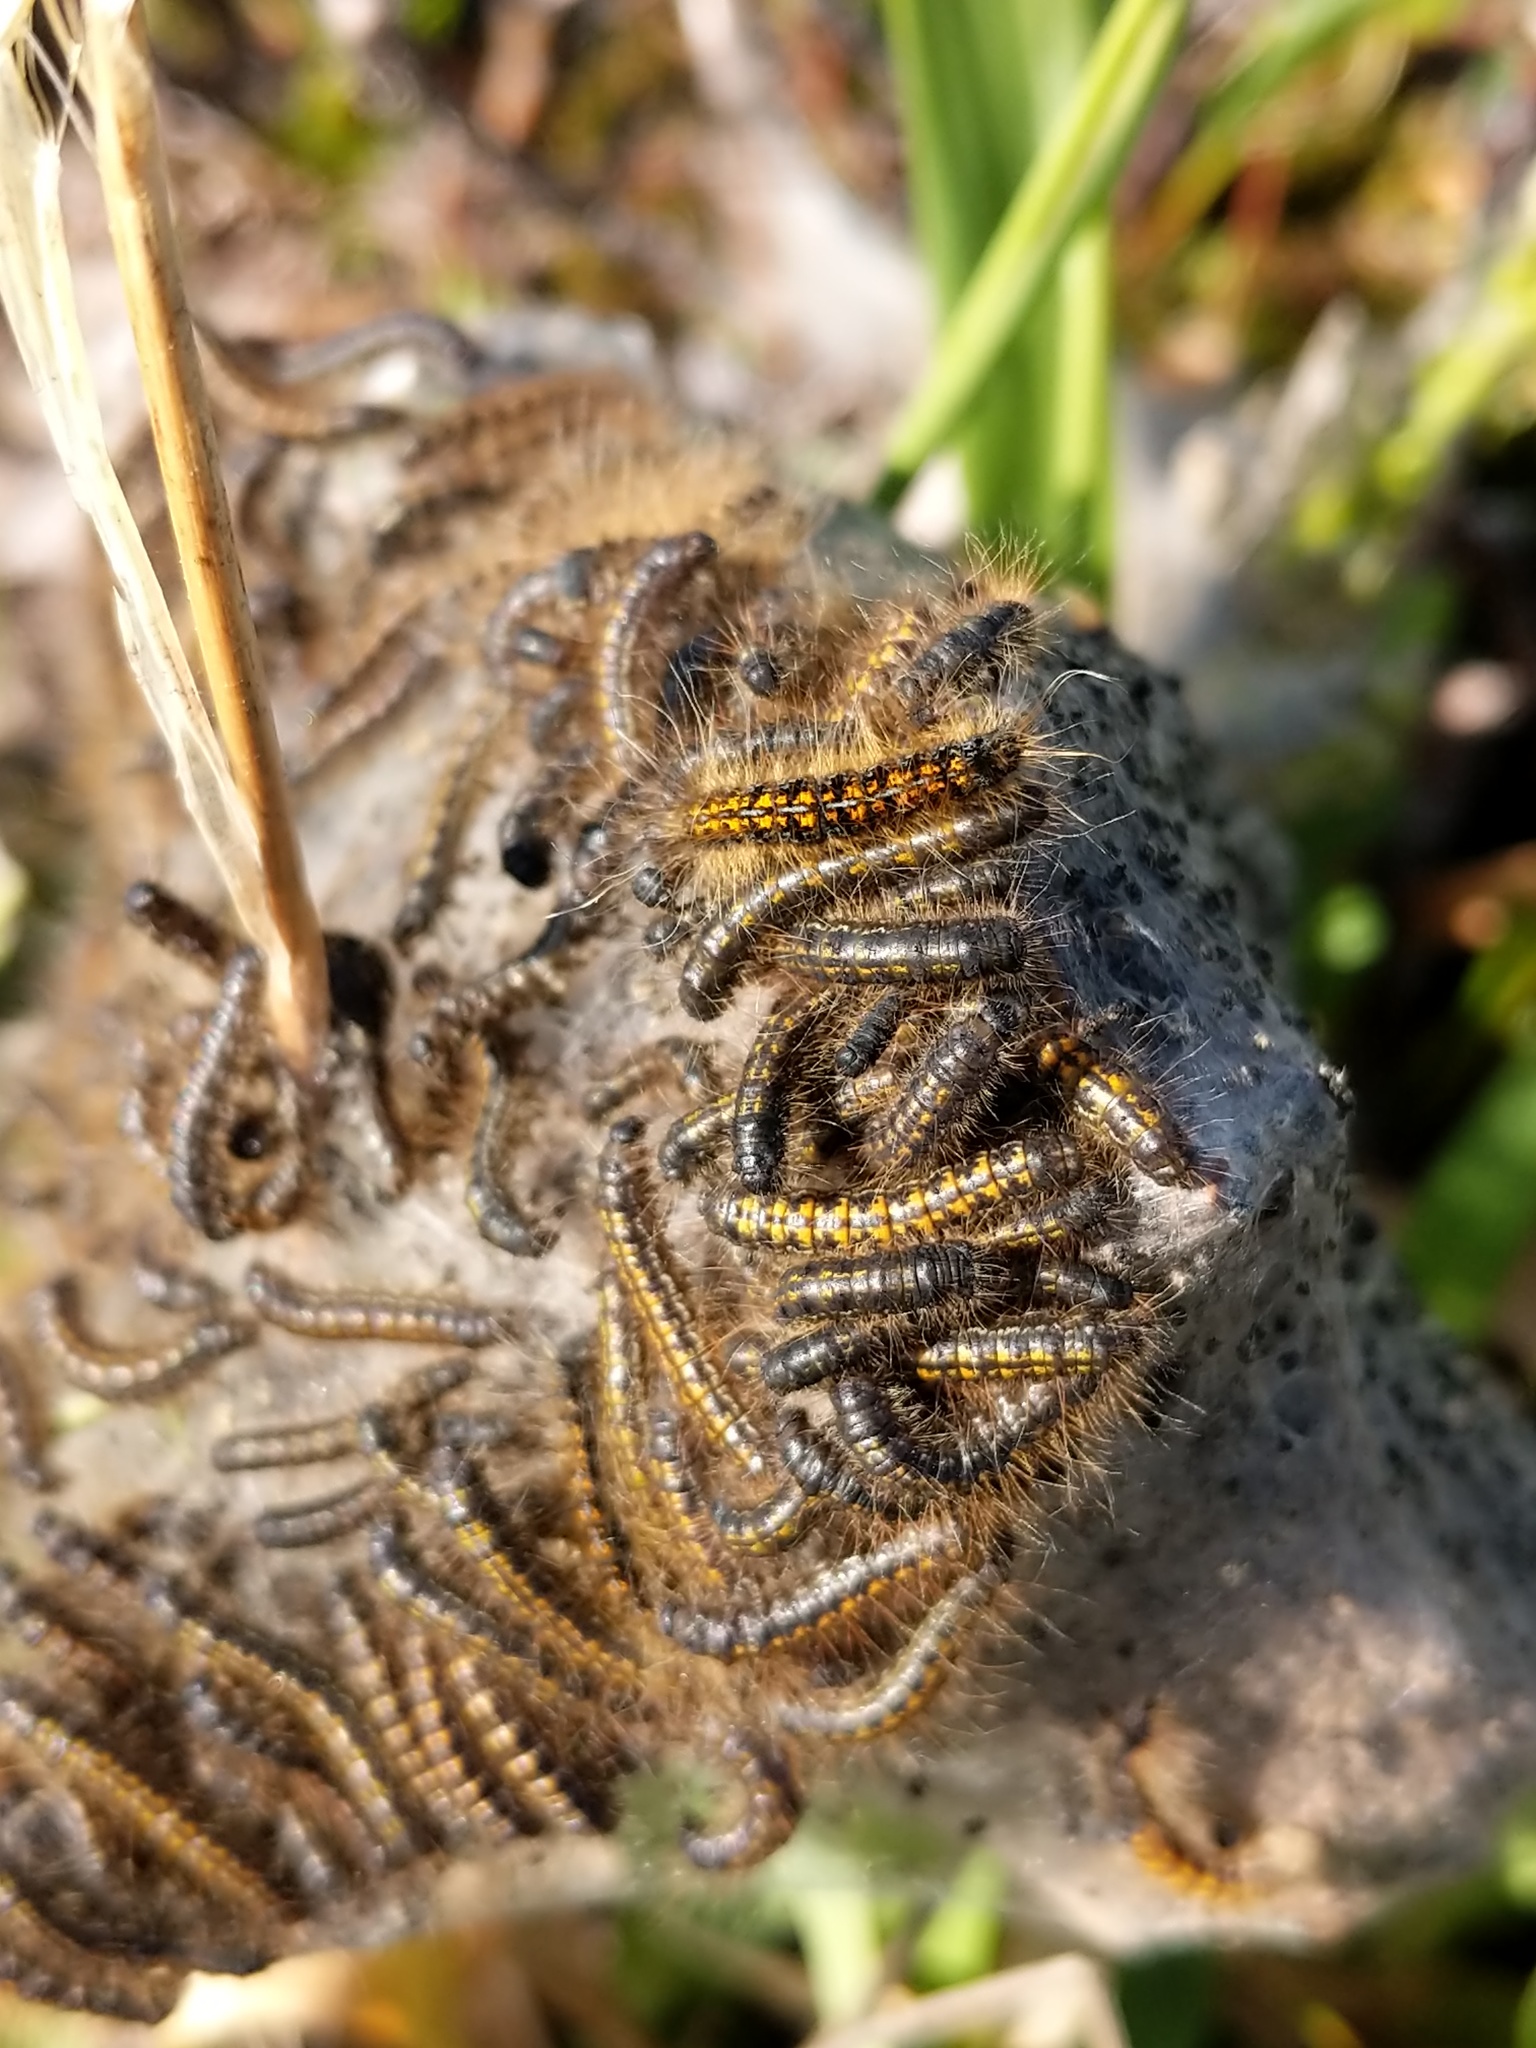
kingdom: Animalia
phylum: Arthropoda
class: Insecta
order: Lepidoptera
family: Lasiocampidae
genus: Malacosoma
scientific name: Malacosoma californica
